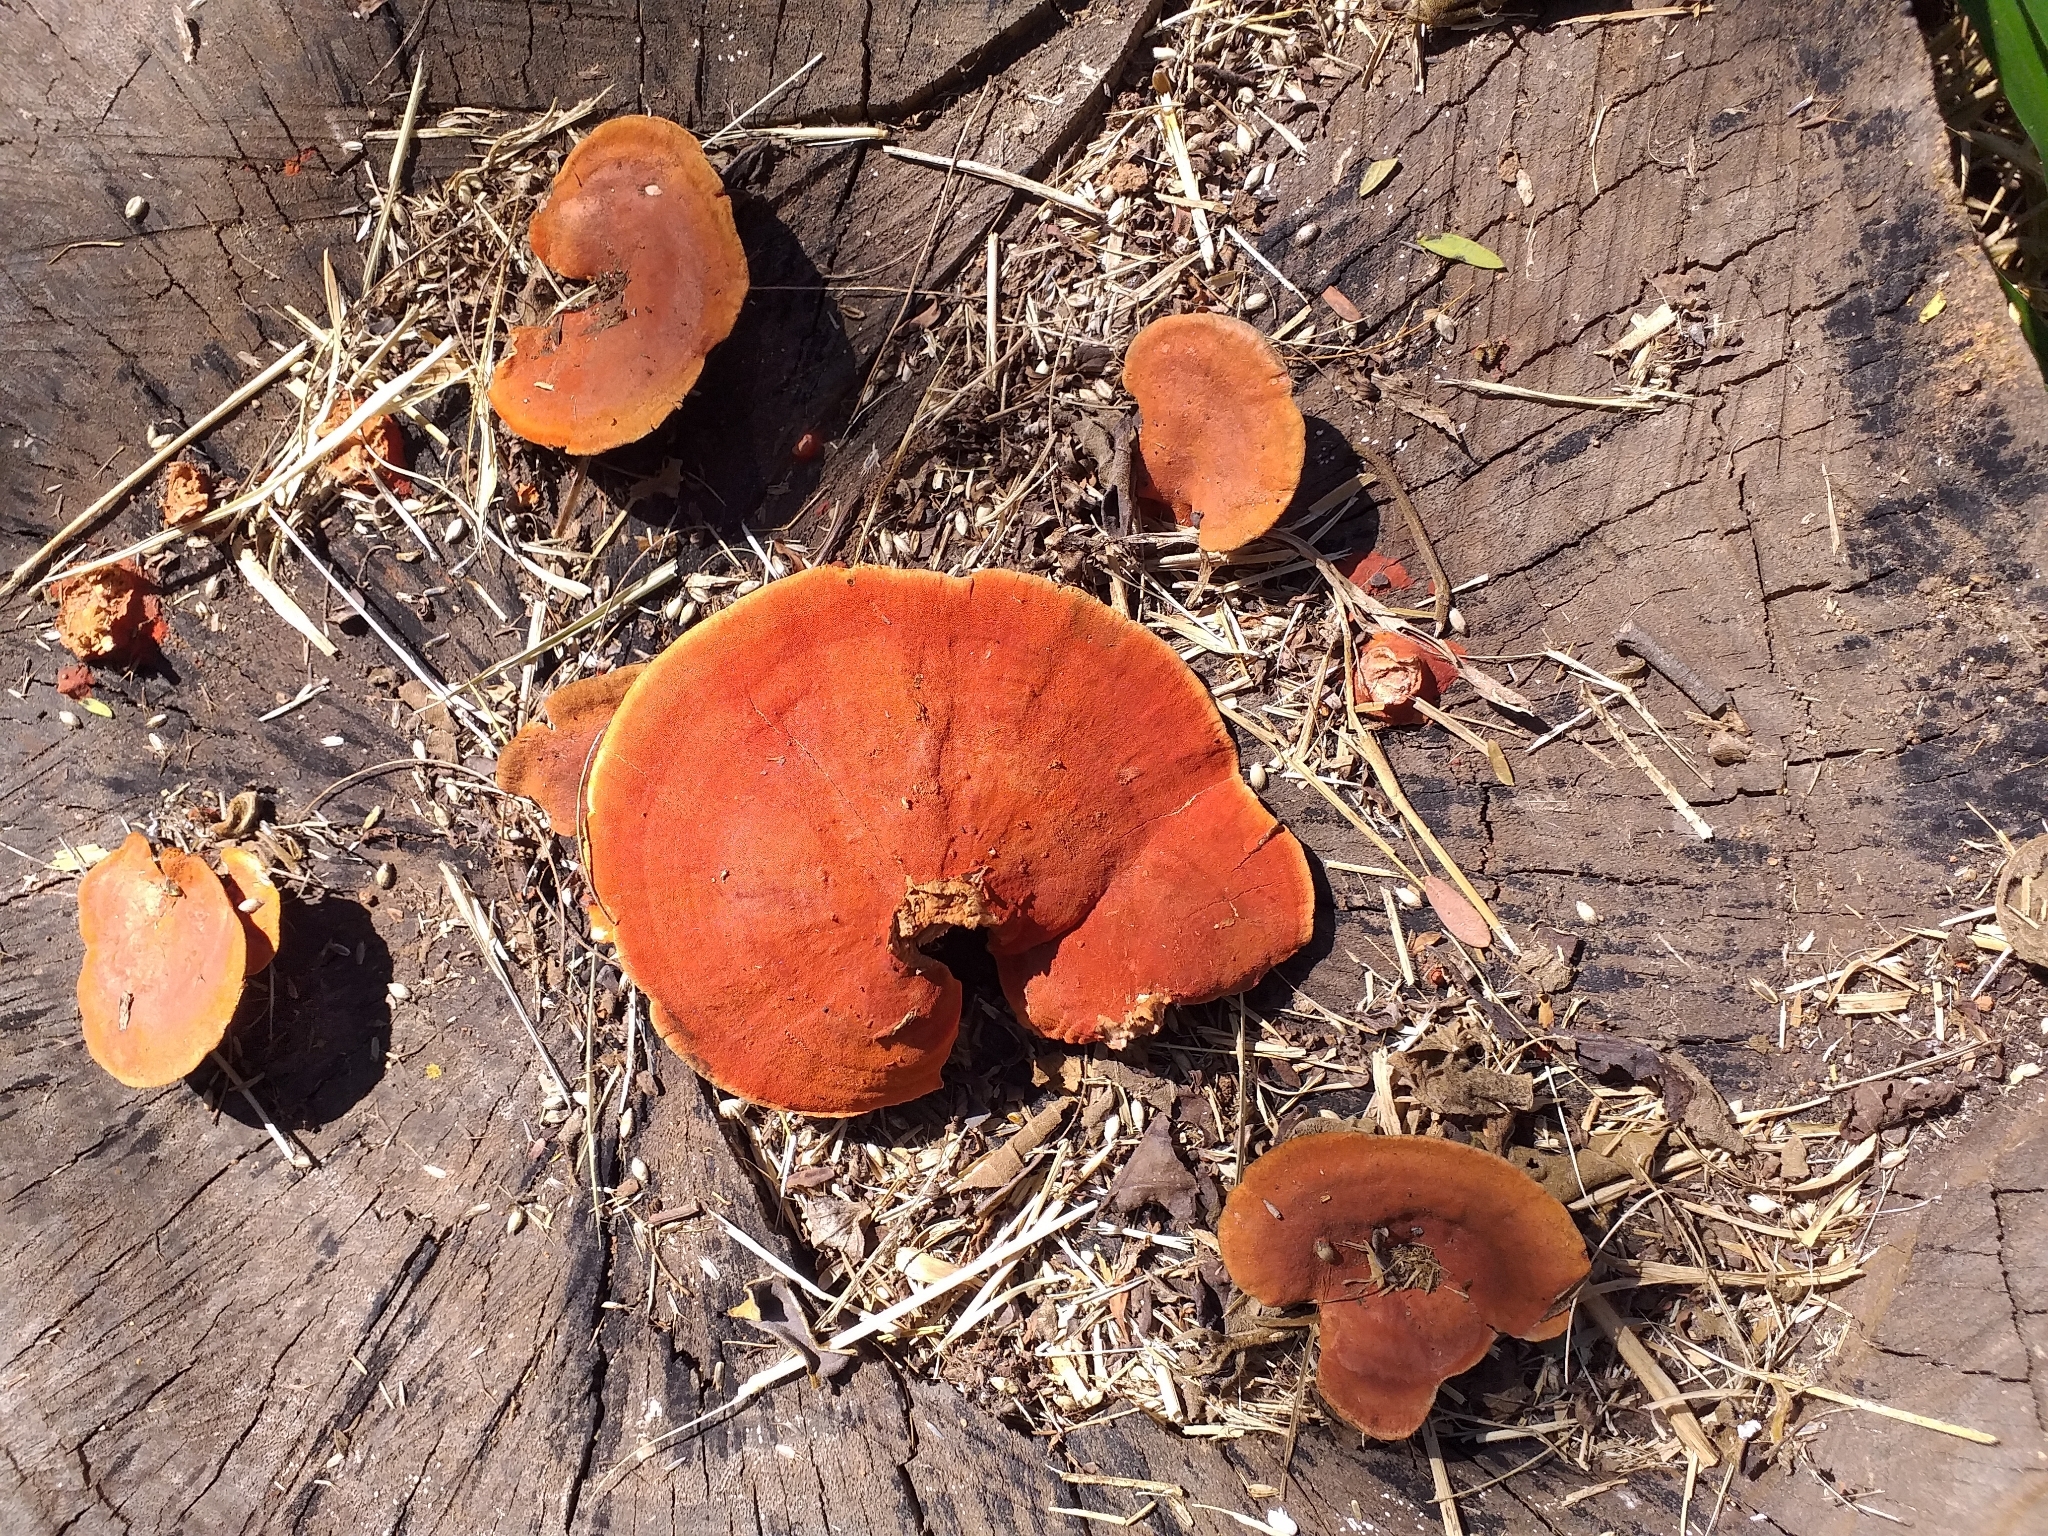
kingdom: Fungi
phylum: Basidiomycota
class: Agaricomycetes
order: Polyporales
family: Polyporaceae
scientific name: Polyporaceae
